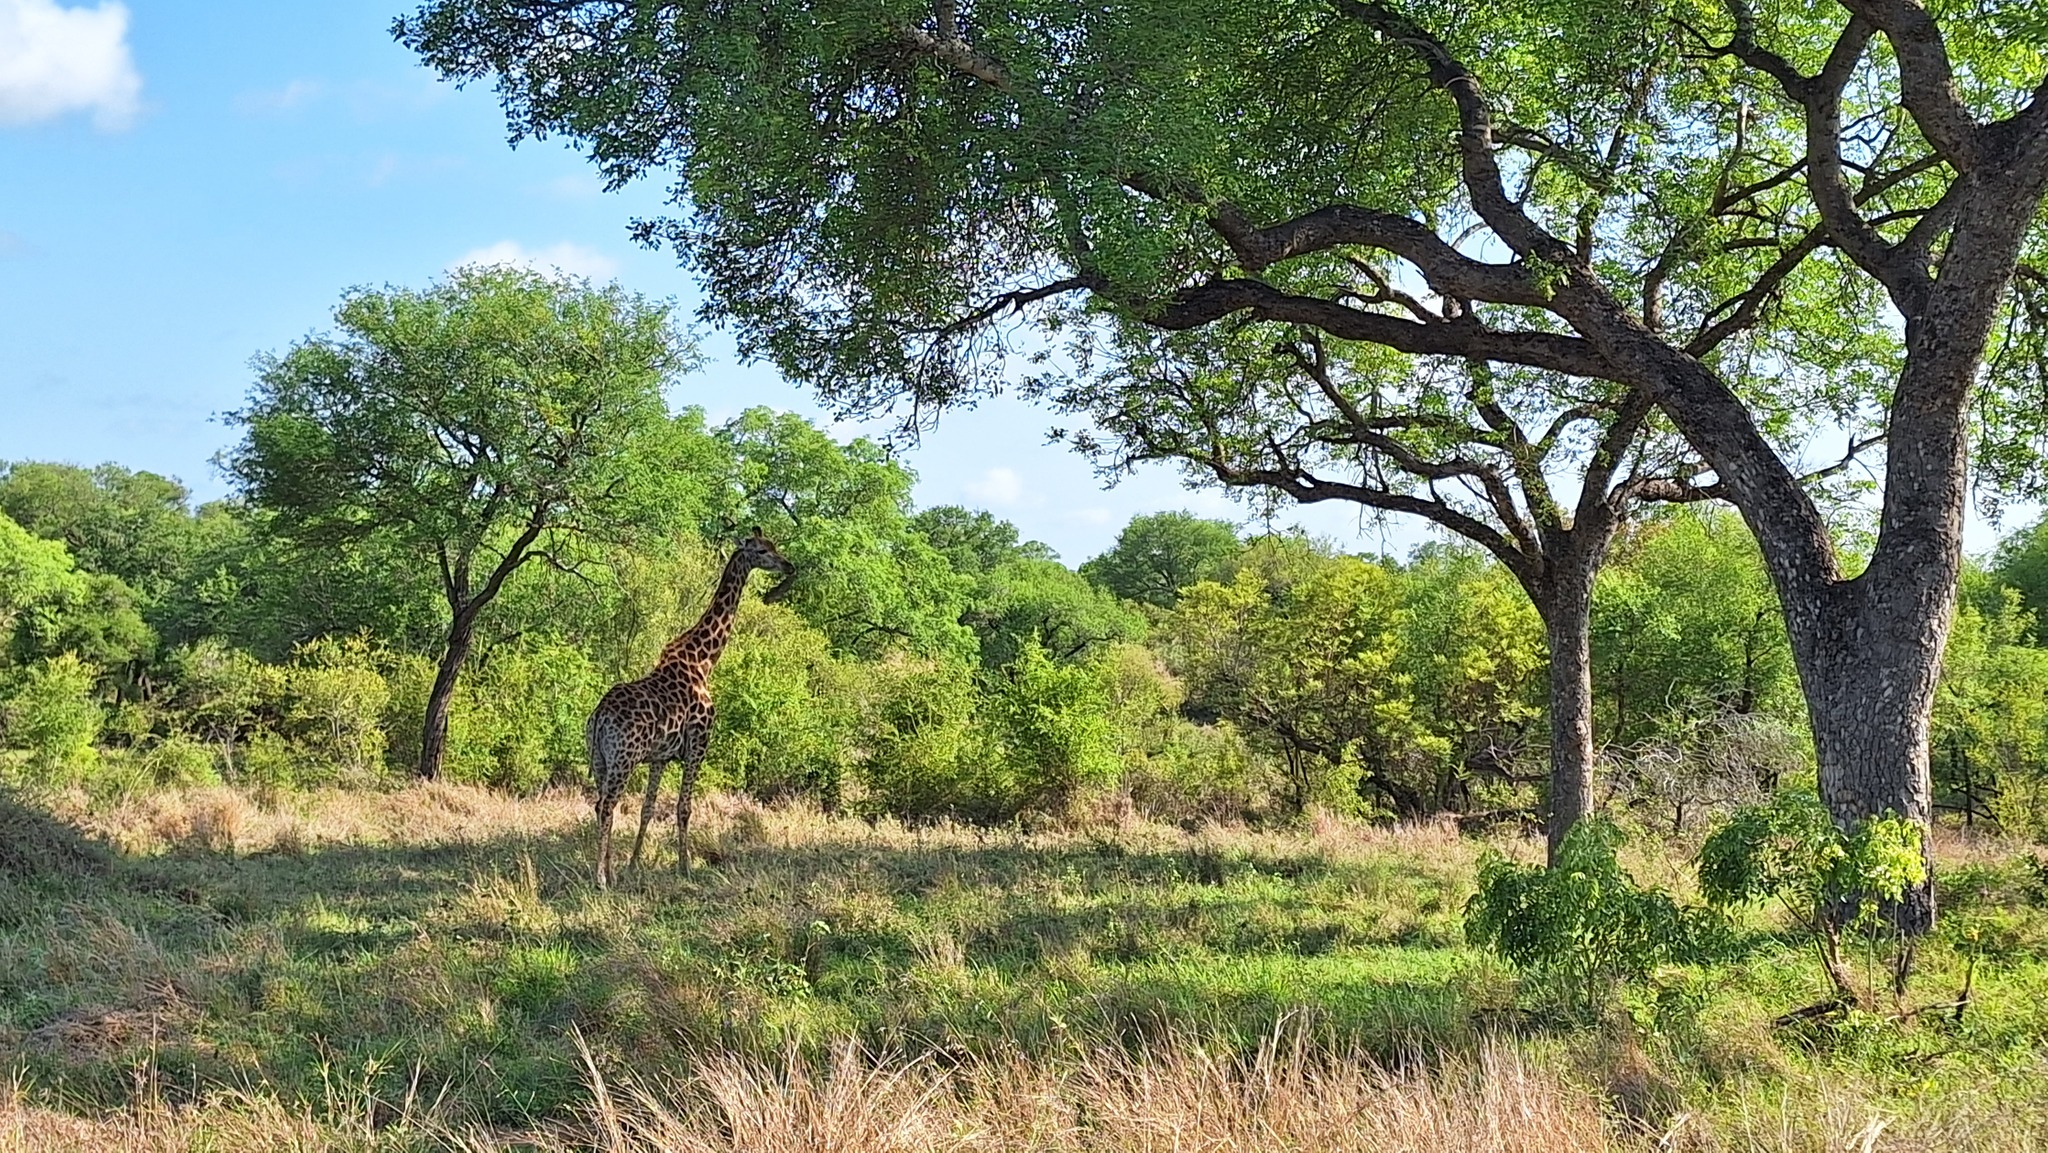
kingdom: Animalia
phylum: Chordata
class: Mammalia
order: Artiodactyla
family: Giraffidae
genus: Giraffa
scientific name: Giraffa giraffa
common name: Southern giraffe
